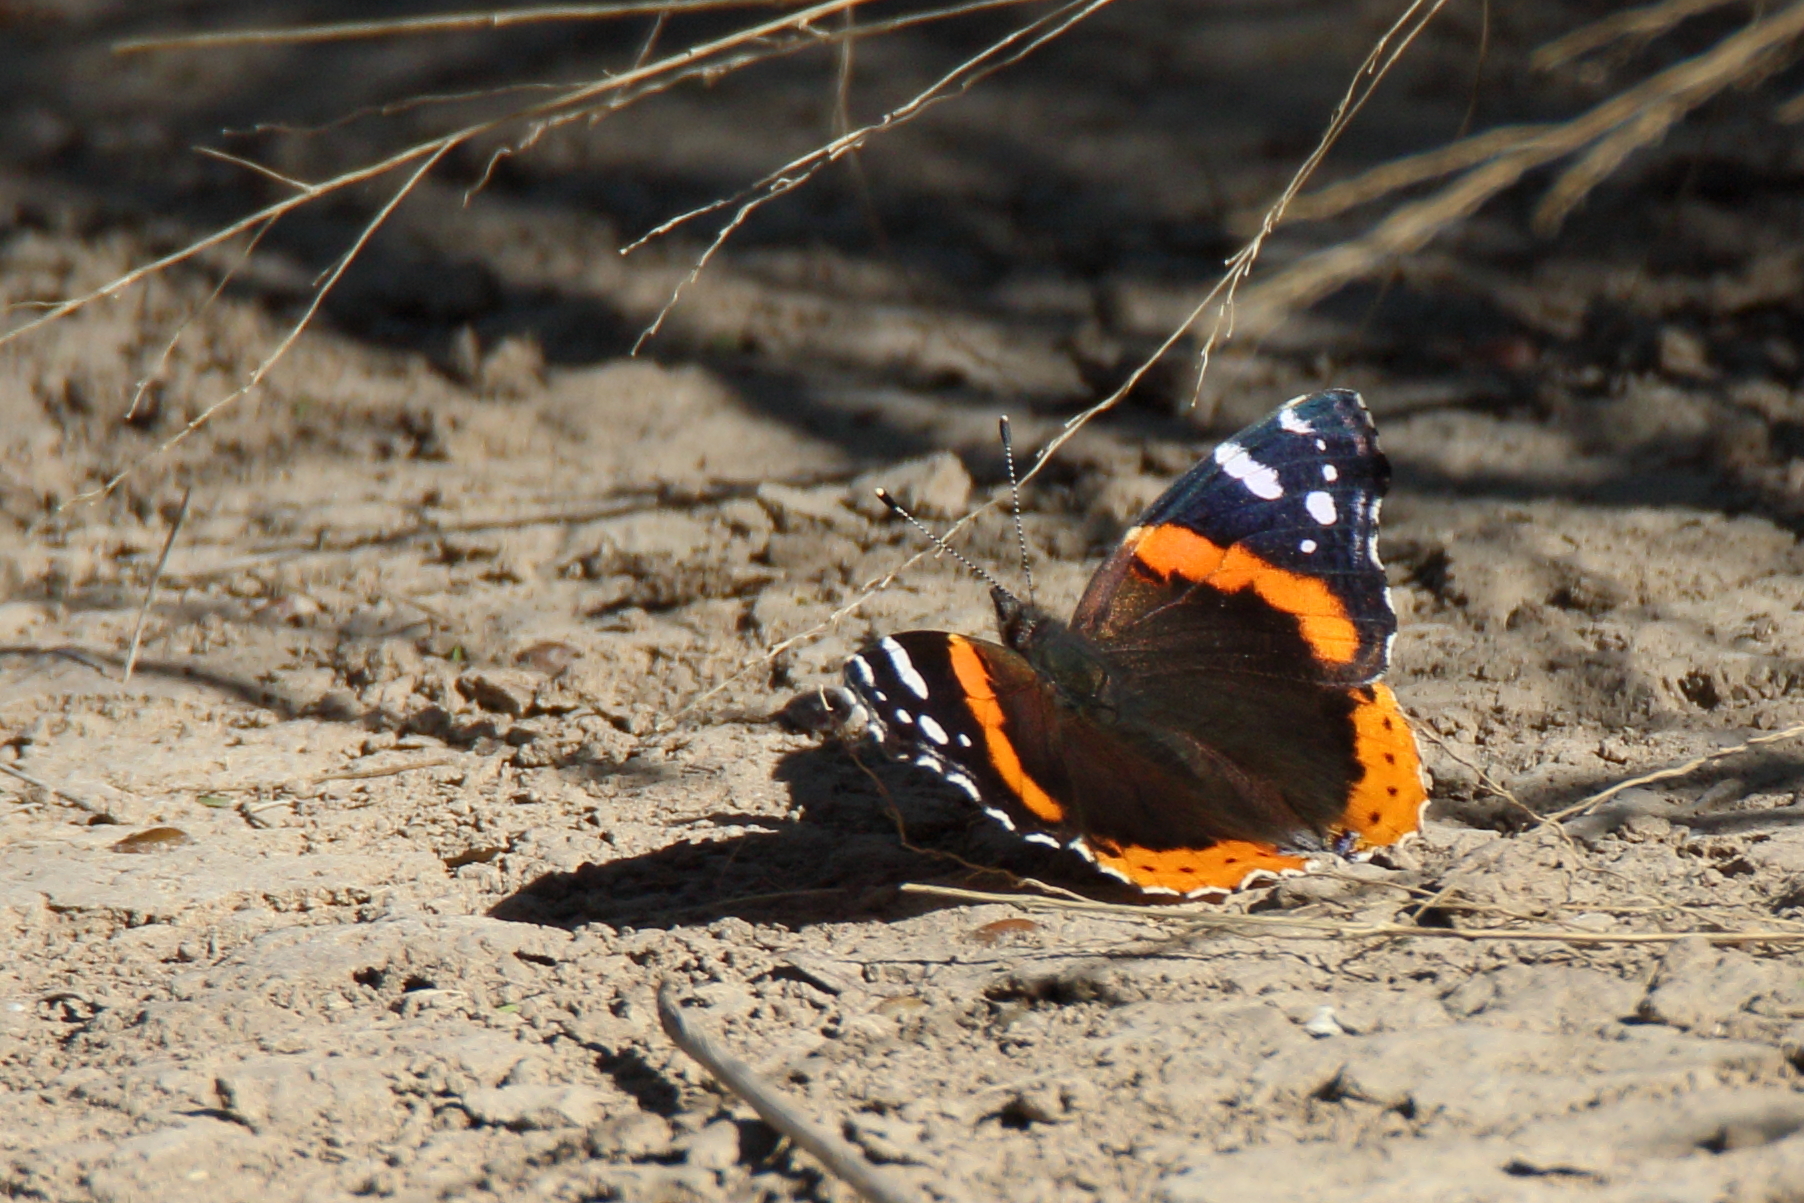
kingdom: Animalia
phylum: Arthropoda
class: Insecta
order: Lepidoptera
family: Nymphalidae
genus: Vanessa
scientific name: Vanessa atalanta
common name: Red admiral
